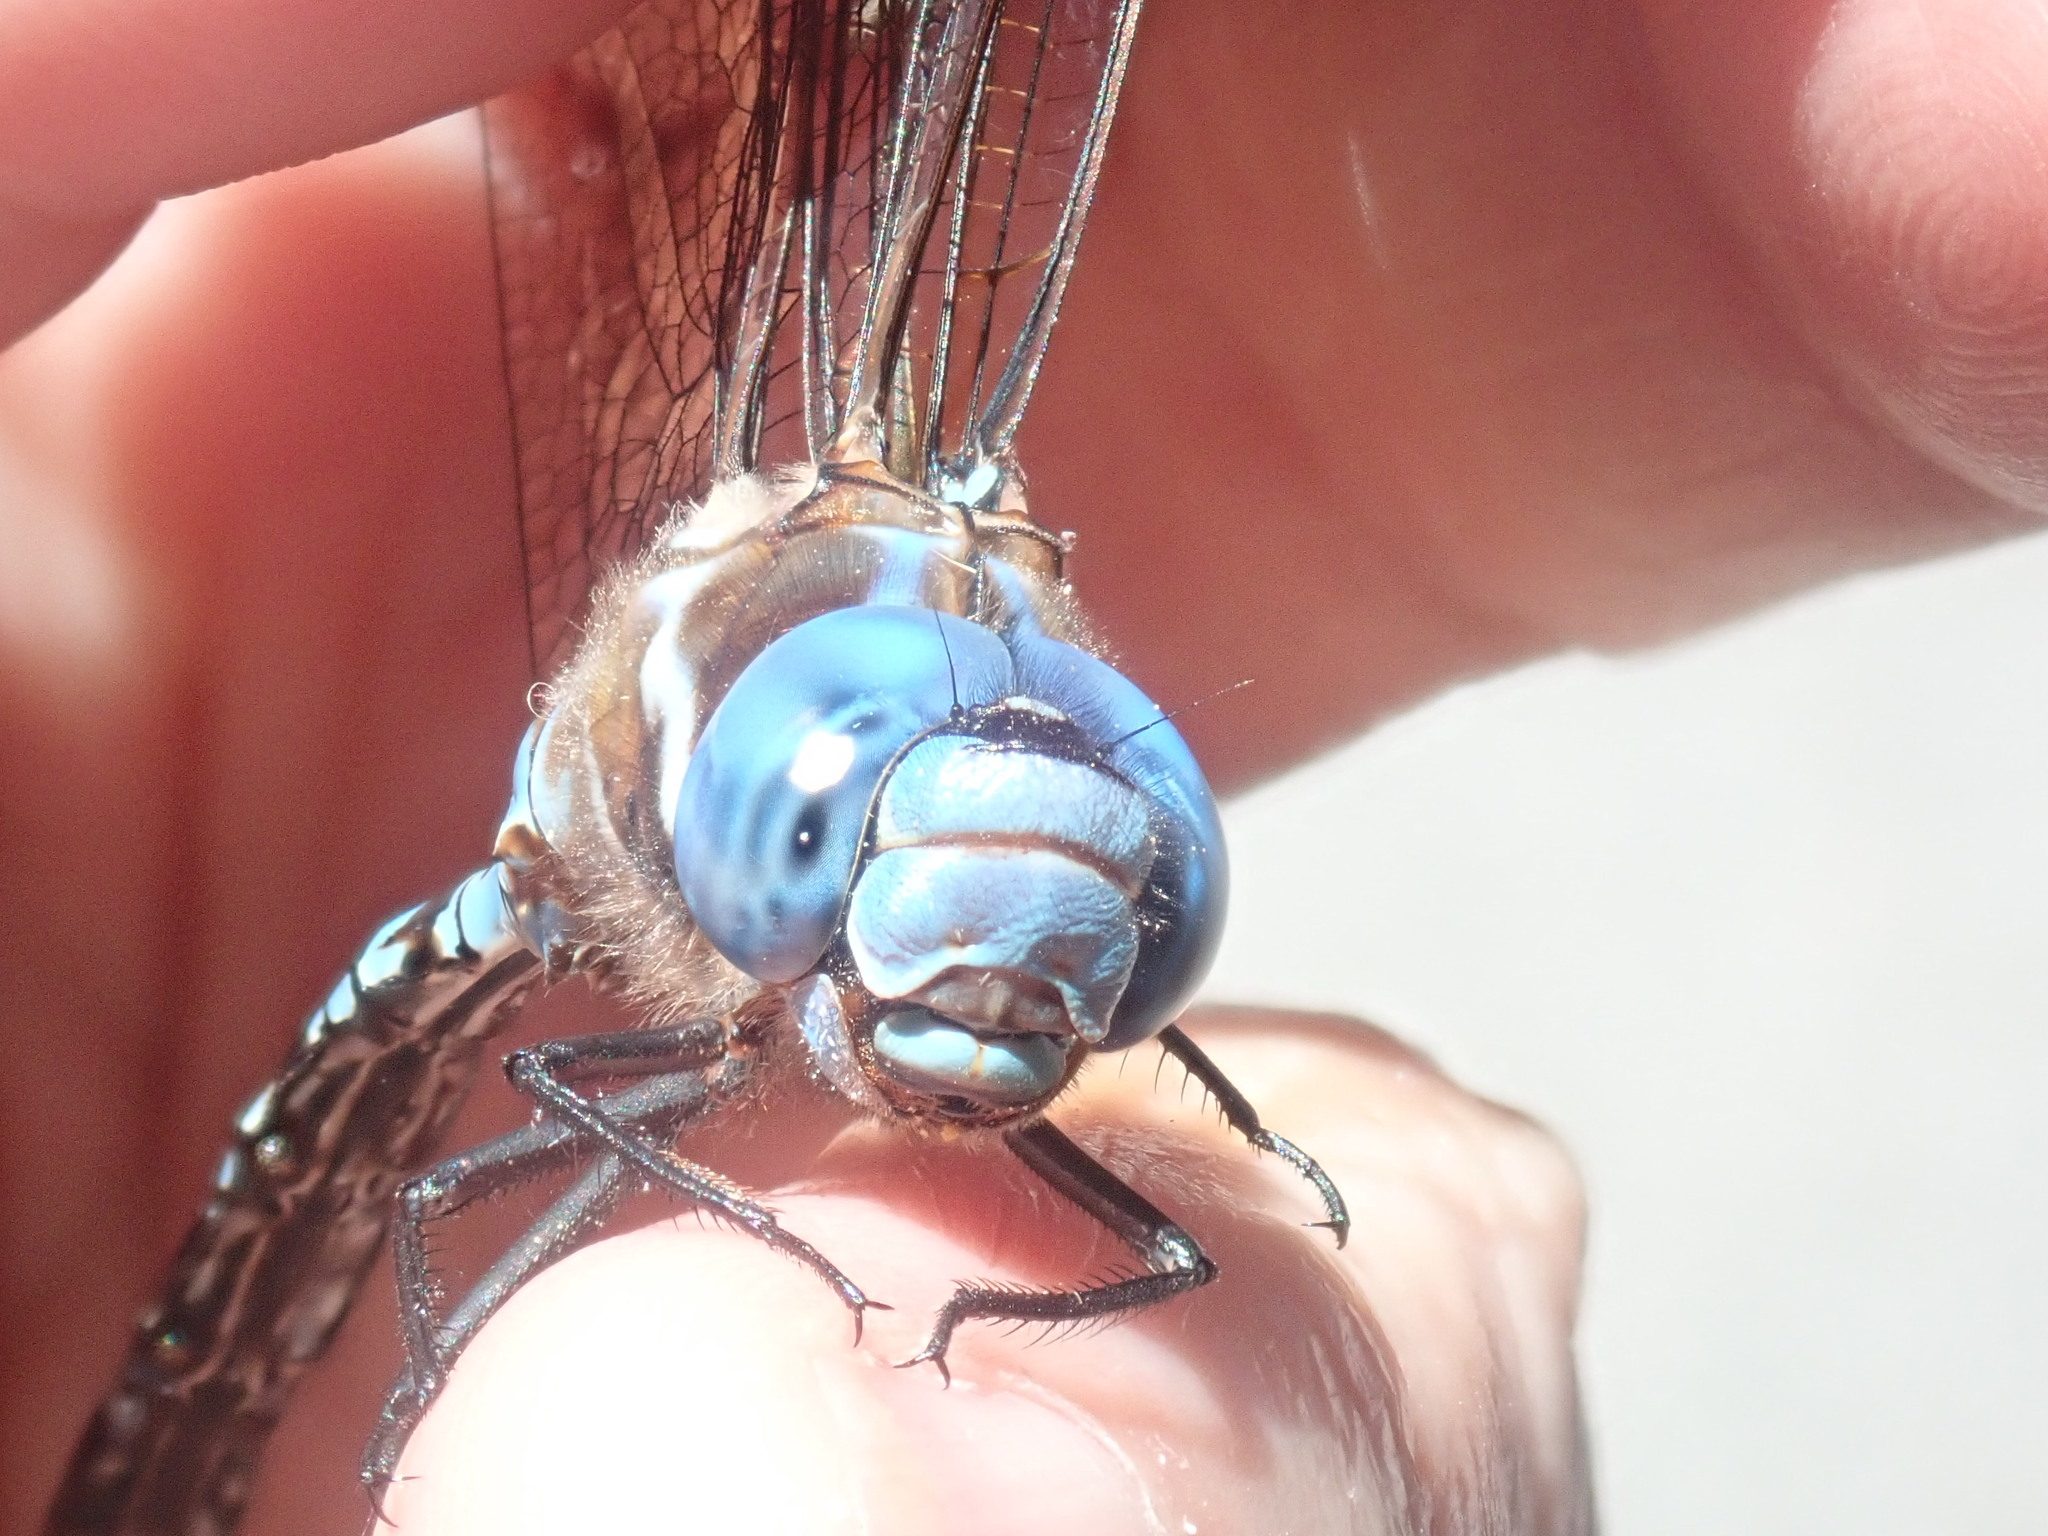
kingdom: Animalia
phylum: Arthropoda
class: Insecta
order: Odonata
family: Aeshnidae
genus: Rhionaeschna
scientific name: Rhionaeschna mutata
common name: Spatterdock darner
